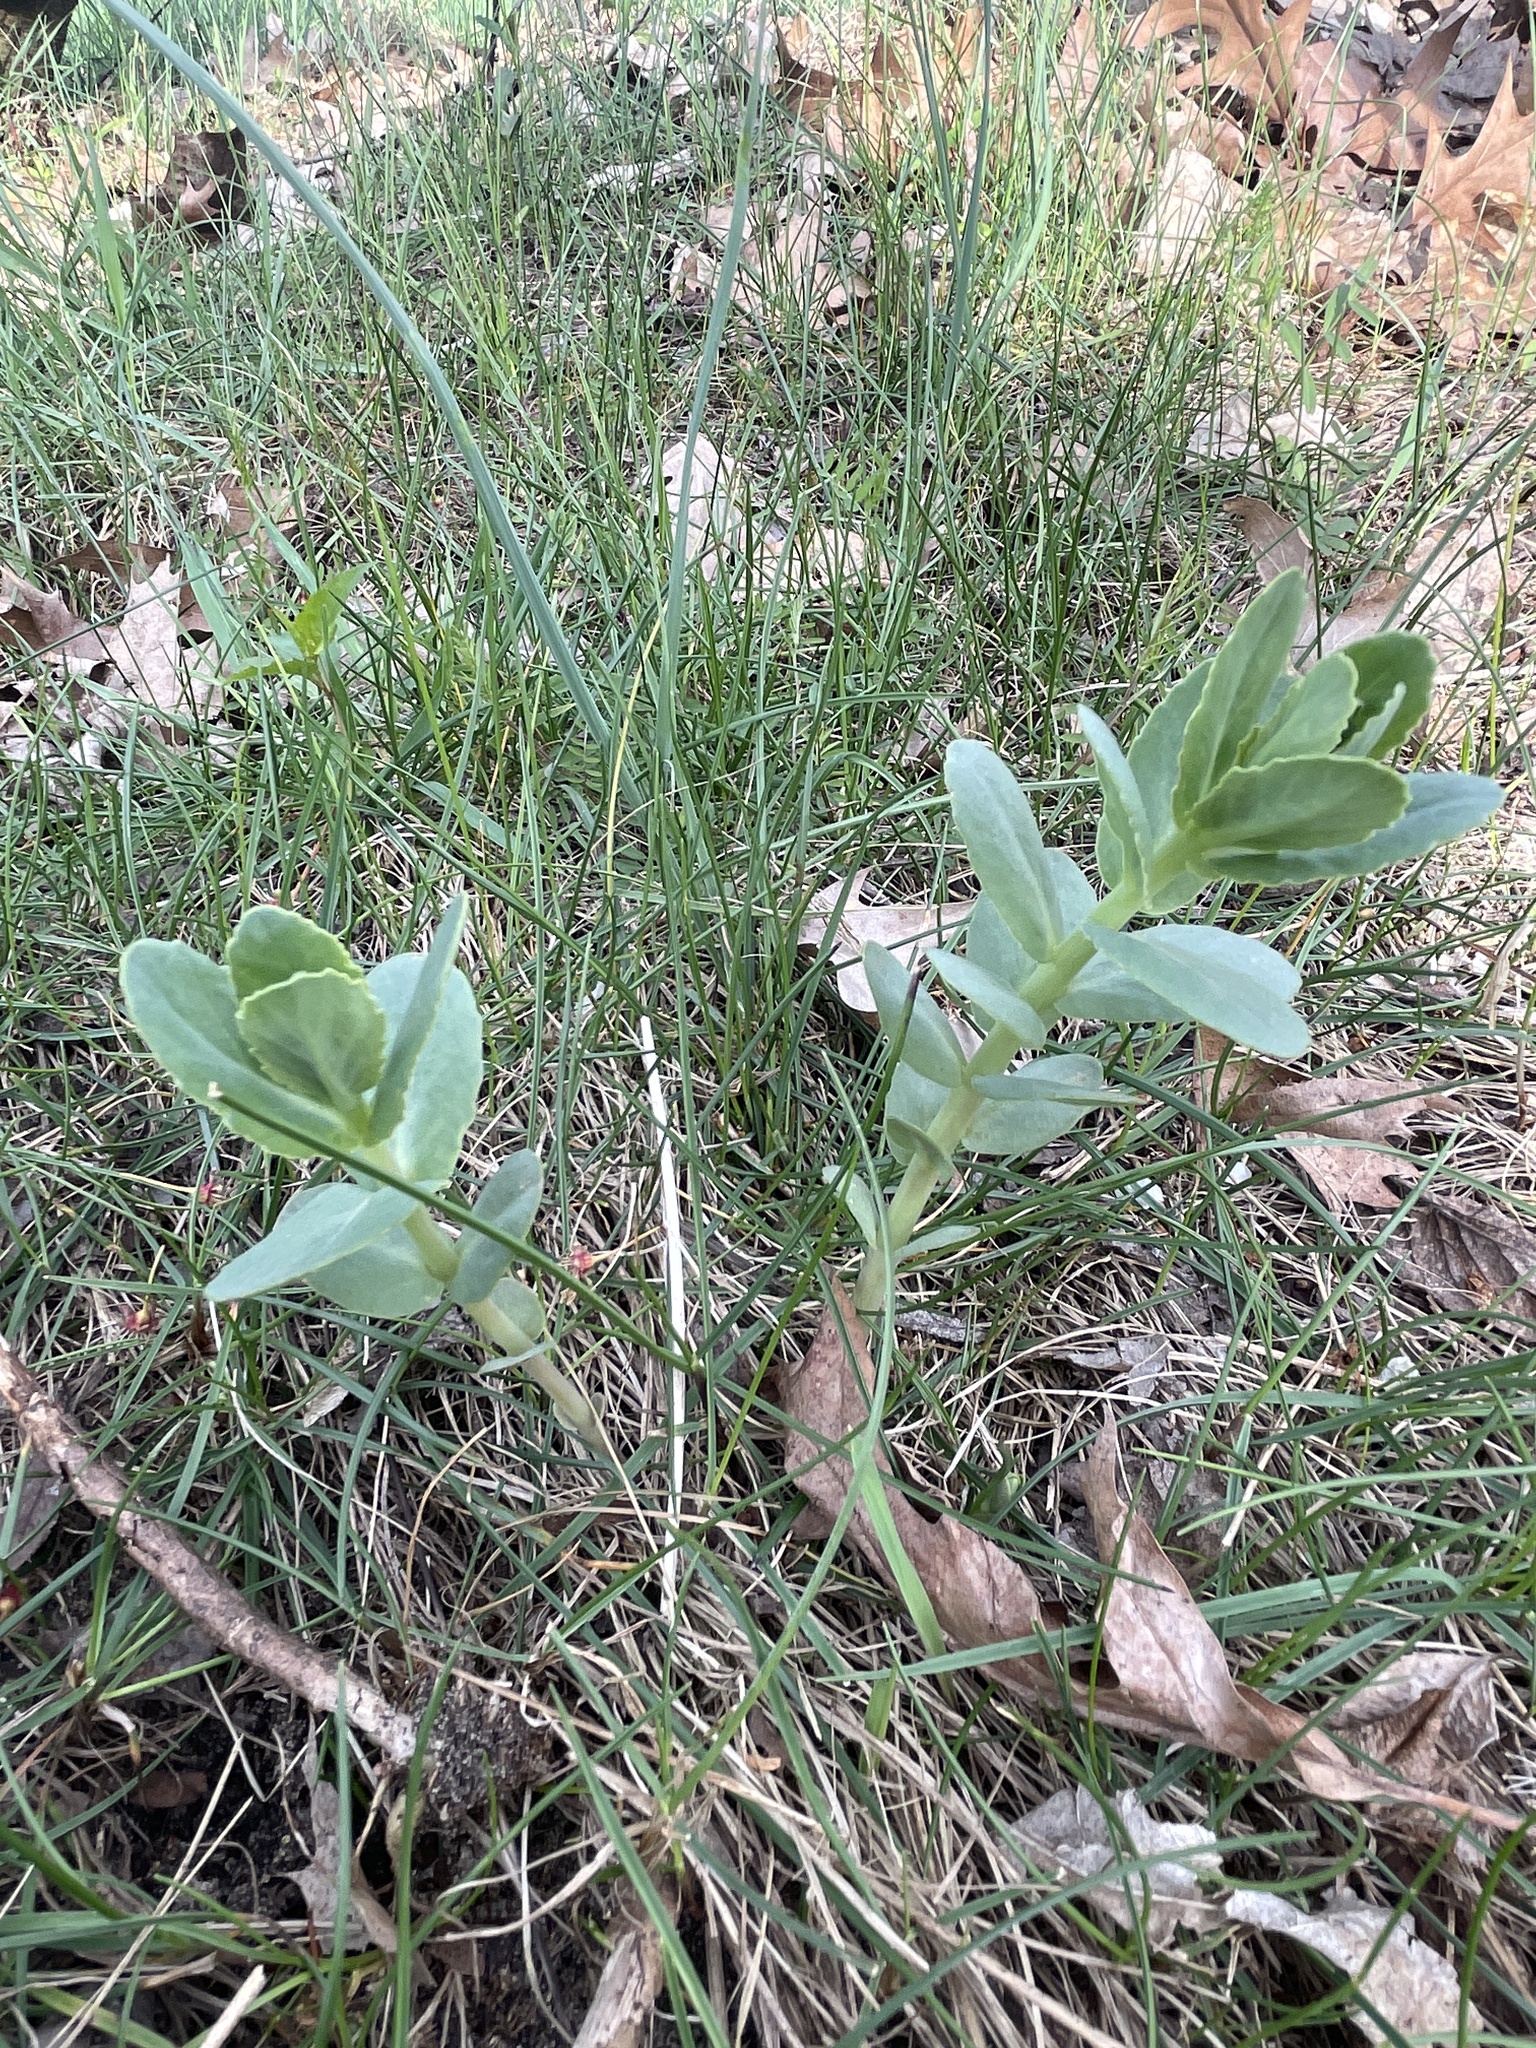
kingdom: Plantae
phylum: Tracheophyta
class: Magnoliopsida
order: Saxifragales
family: Crassulaceae
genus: Hylotelephium
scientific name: Hylotelephium maximum
